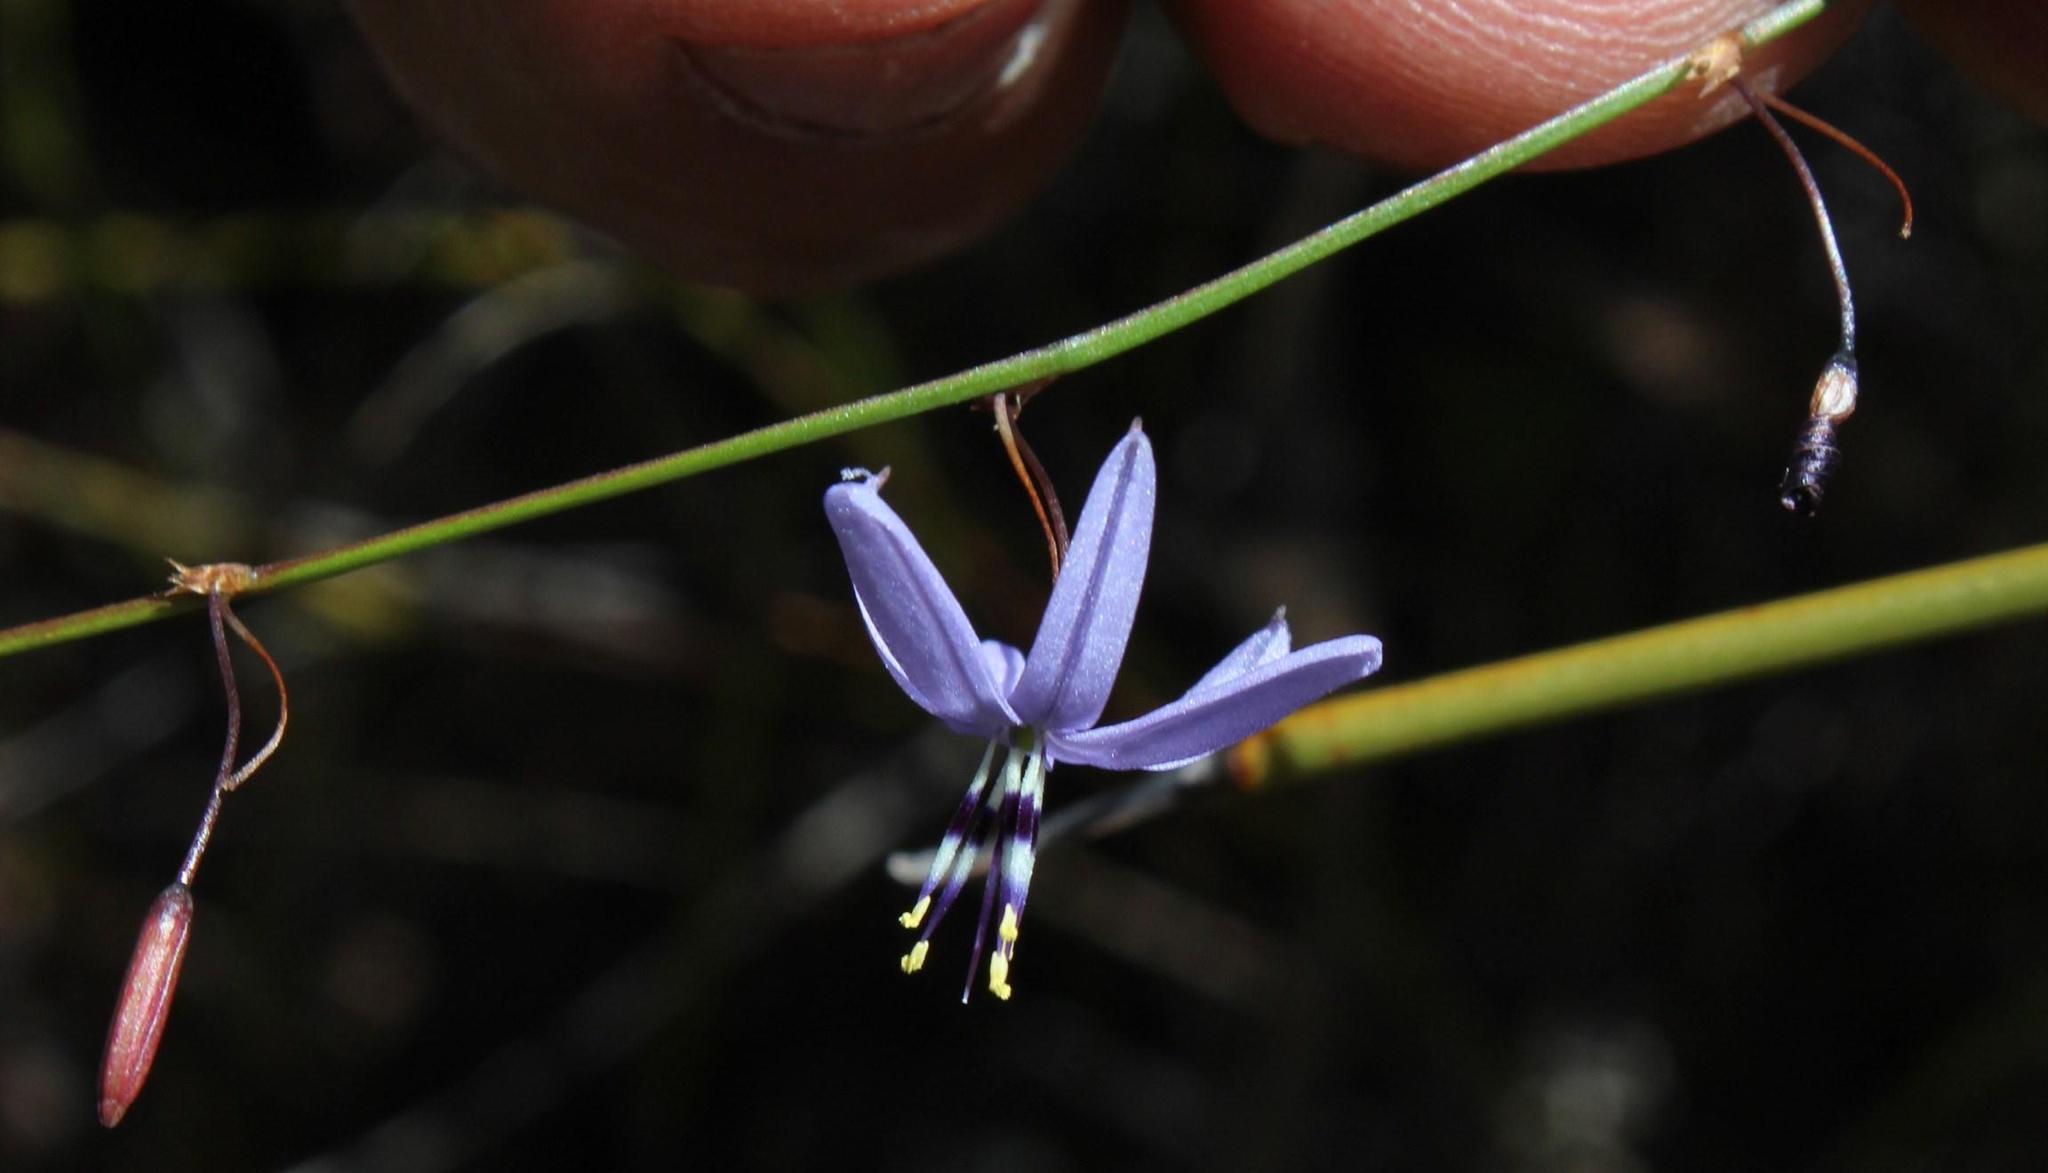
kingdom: Plantae
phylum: Tracheophyta
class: Liliopsida
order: Asparagales
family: Asphodelaceae
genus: Caesia
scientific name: Caesia contorta
